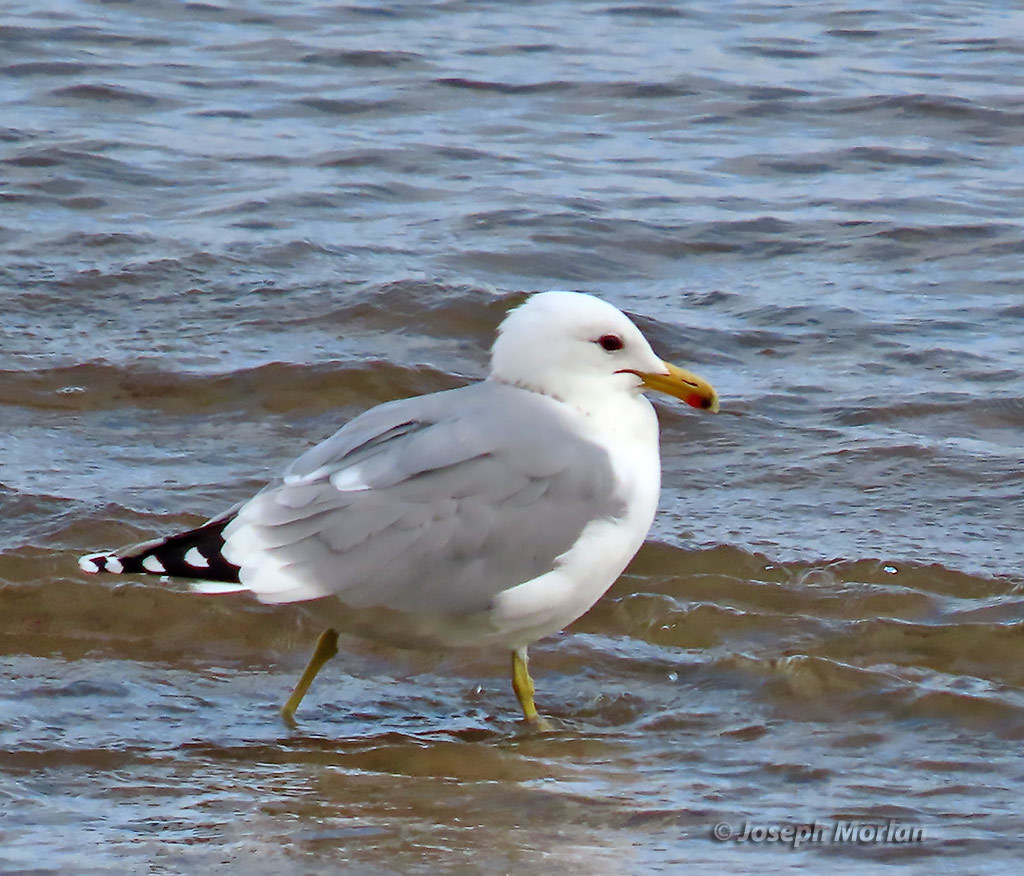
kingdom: Animalia
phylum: Chordata
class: Aves
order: Charadriiformes
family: Laridae
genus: Larus
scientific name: Larus californicus
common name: California gull
